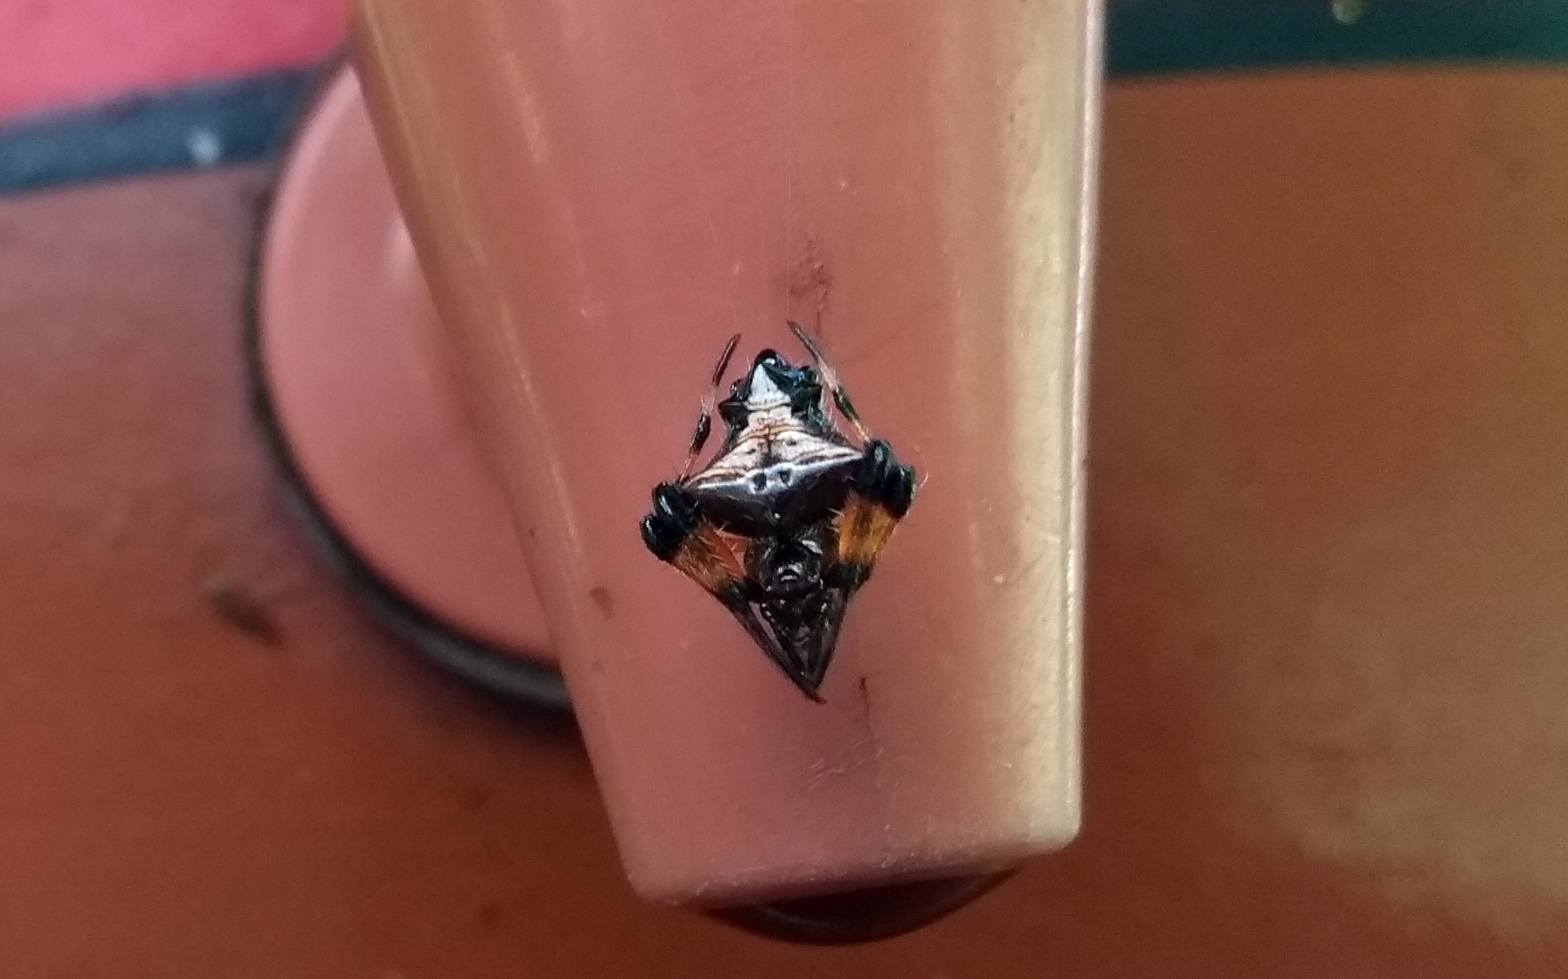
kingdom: Animalia
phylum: Arthropoda
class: Arachnida
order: Araneae
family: Araneidae
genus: Verrucosa
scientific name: Verrucosa scapofracta
